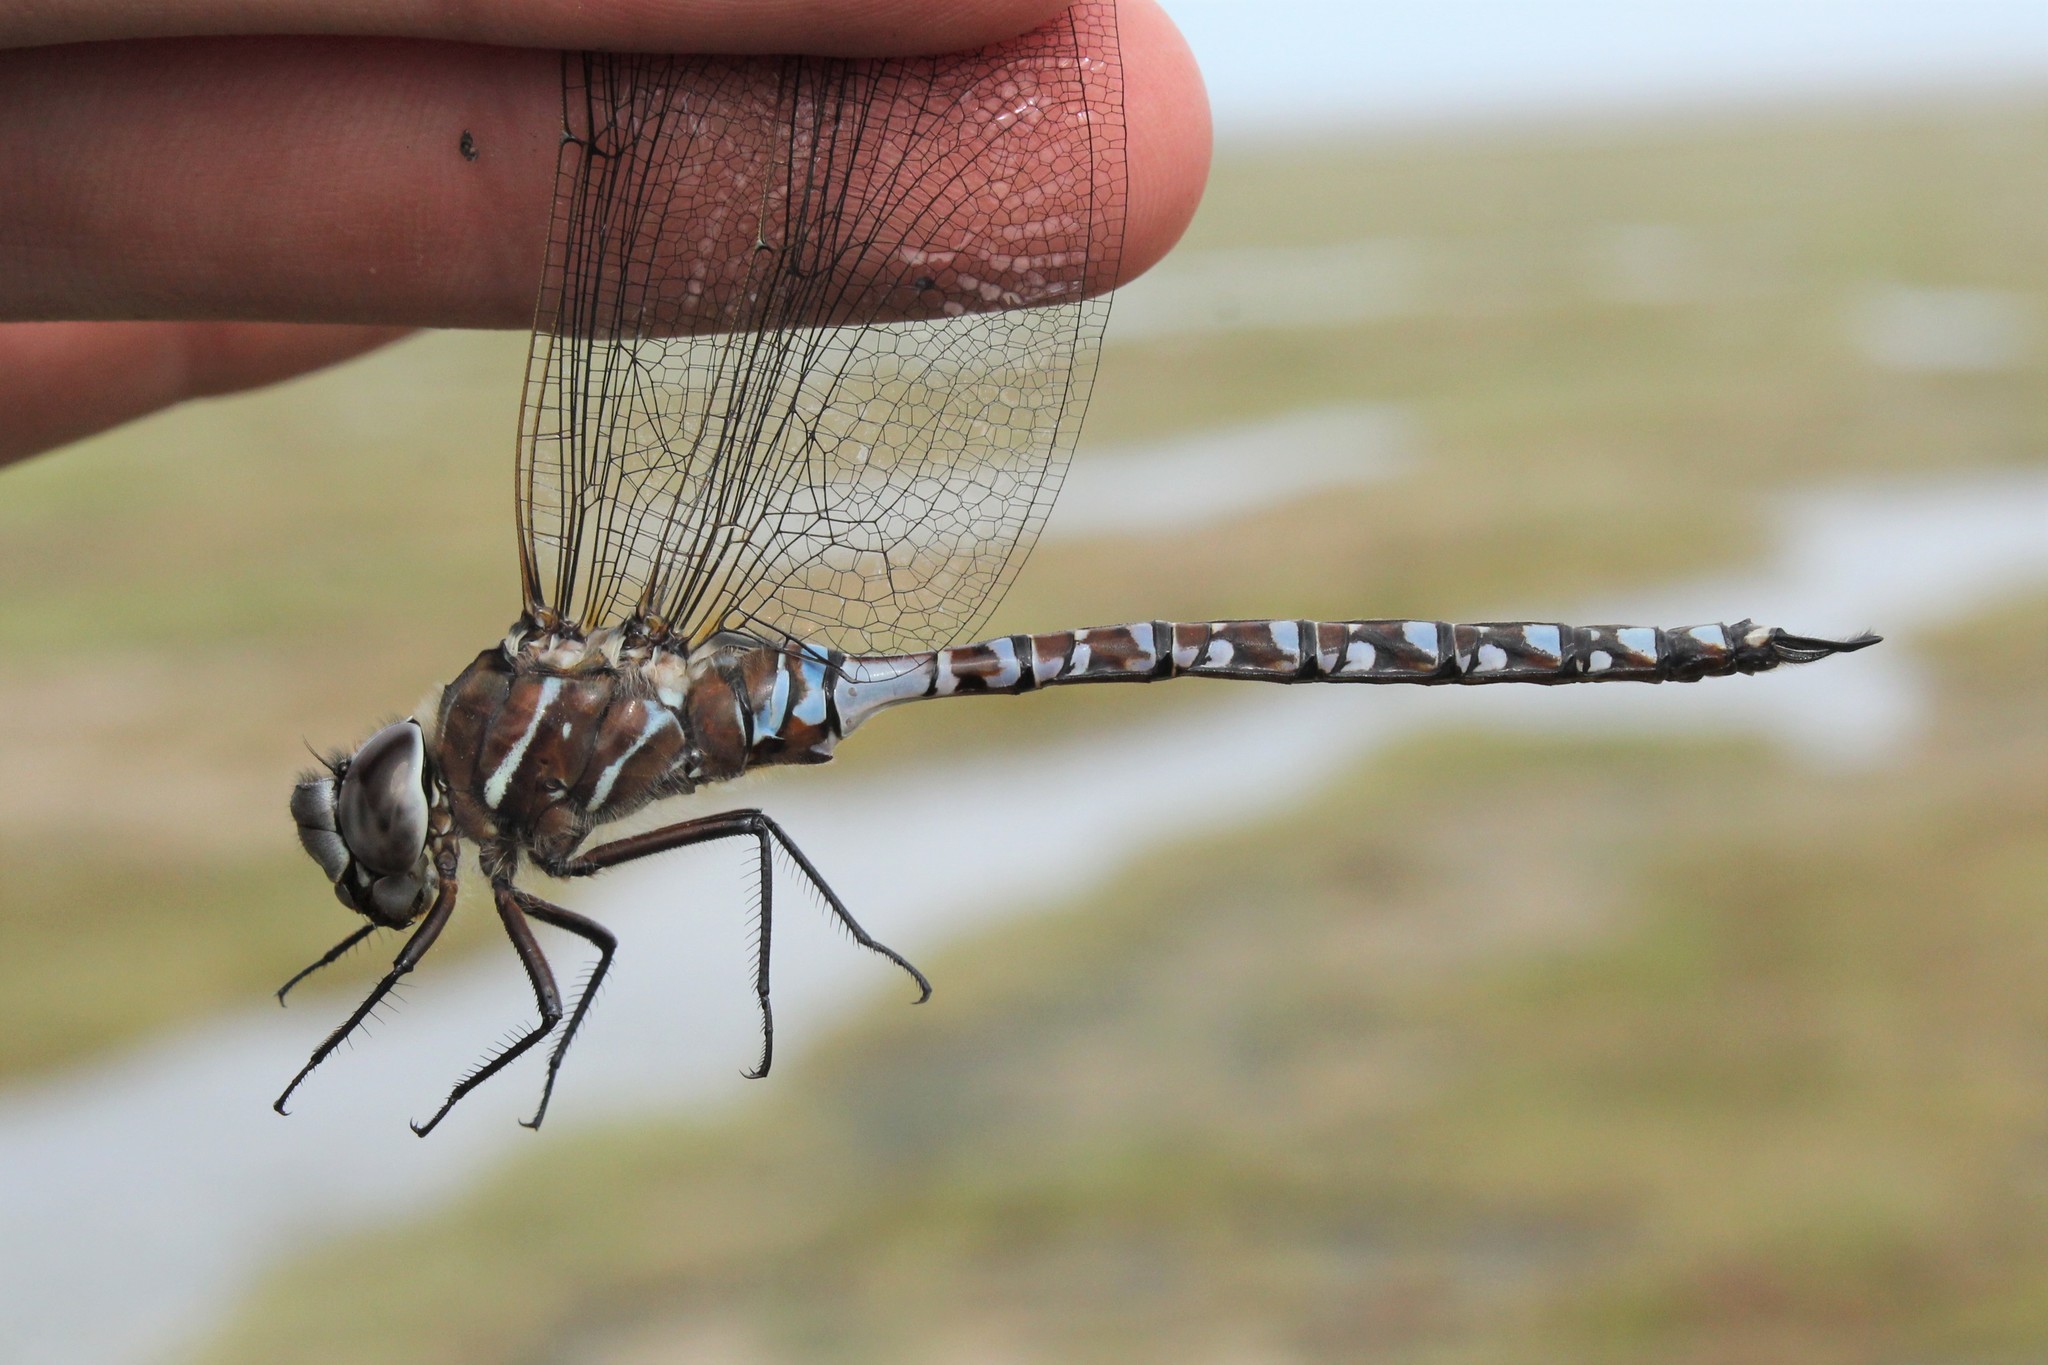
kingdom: Animalia
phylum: Arthropoda
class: Insecta
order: Odonata
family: Aeshnidae
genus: Aeshna
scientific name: Aeshna interrupta
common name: Variable darner
